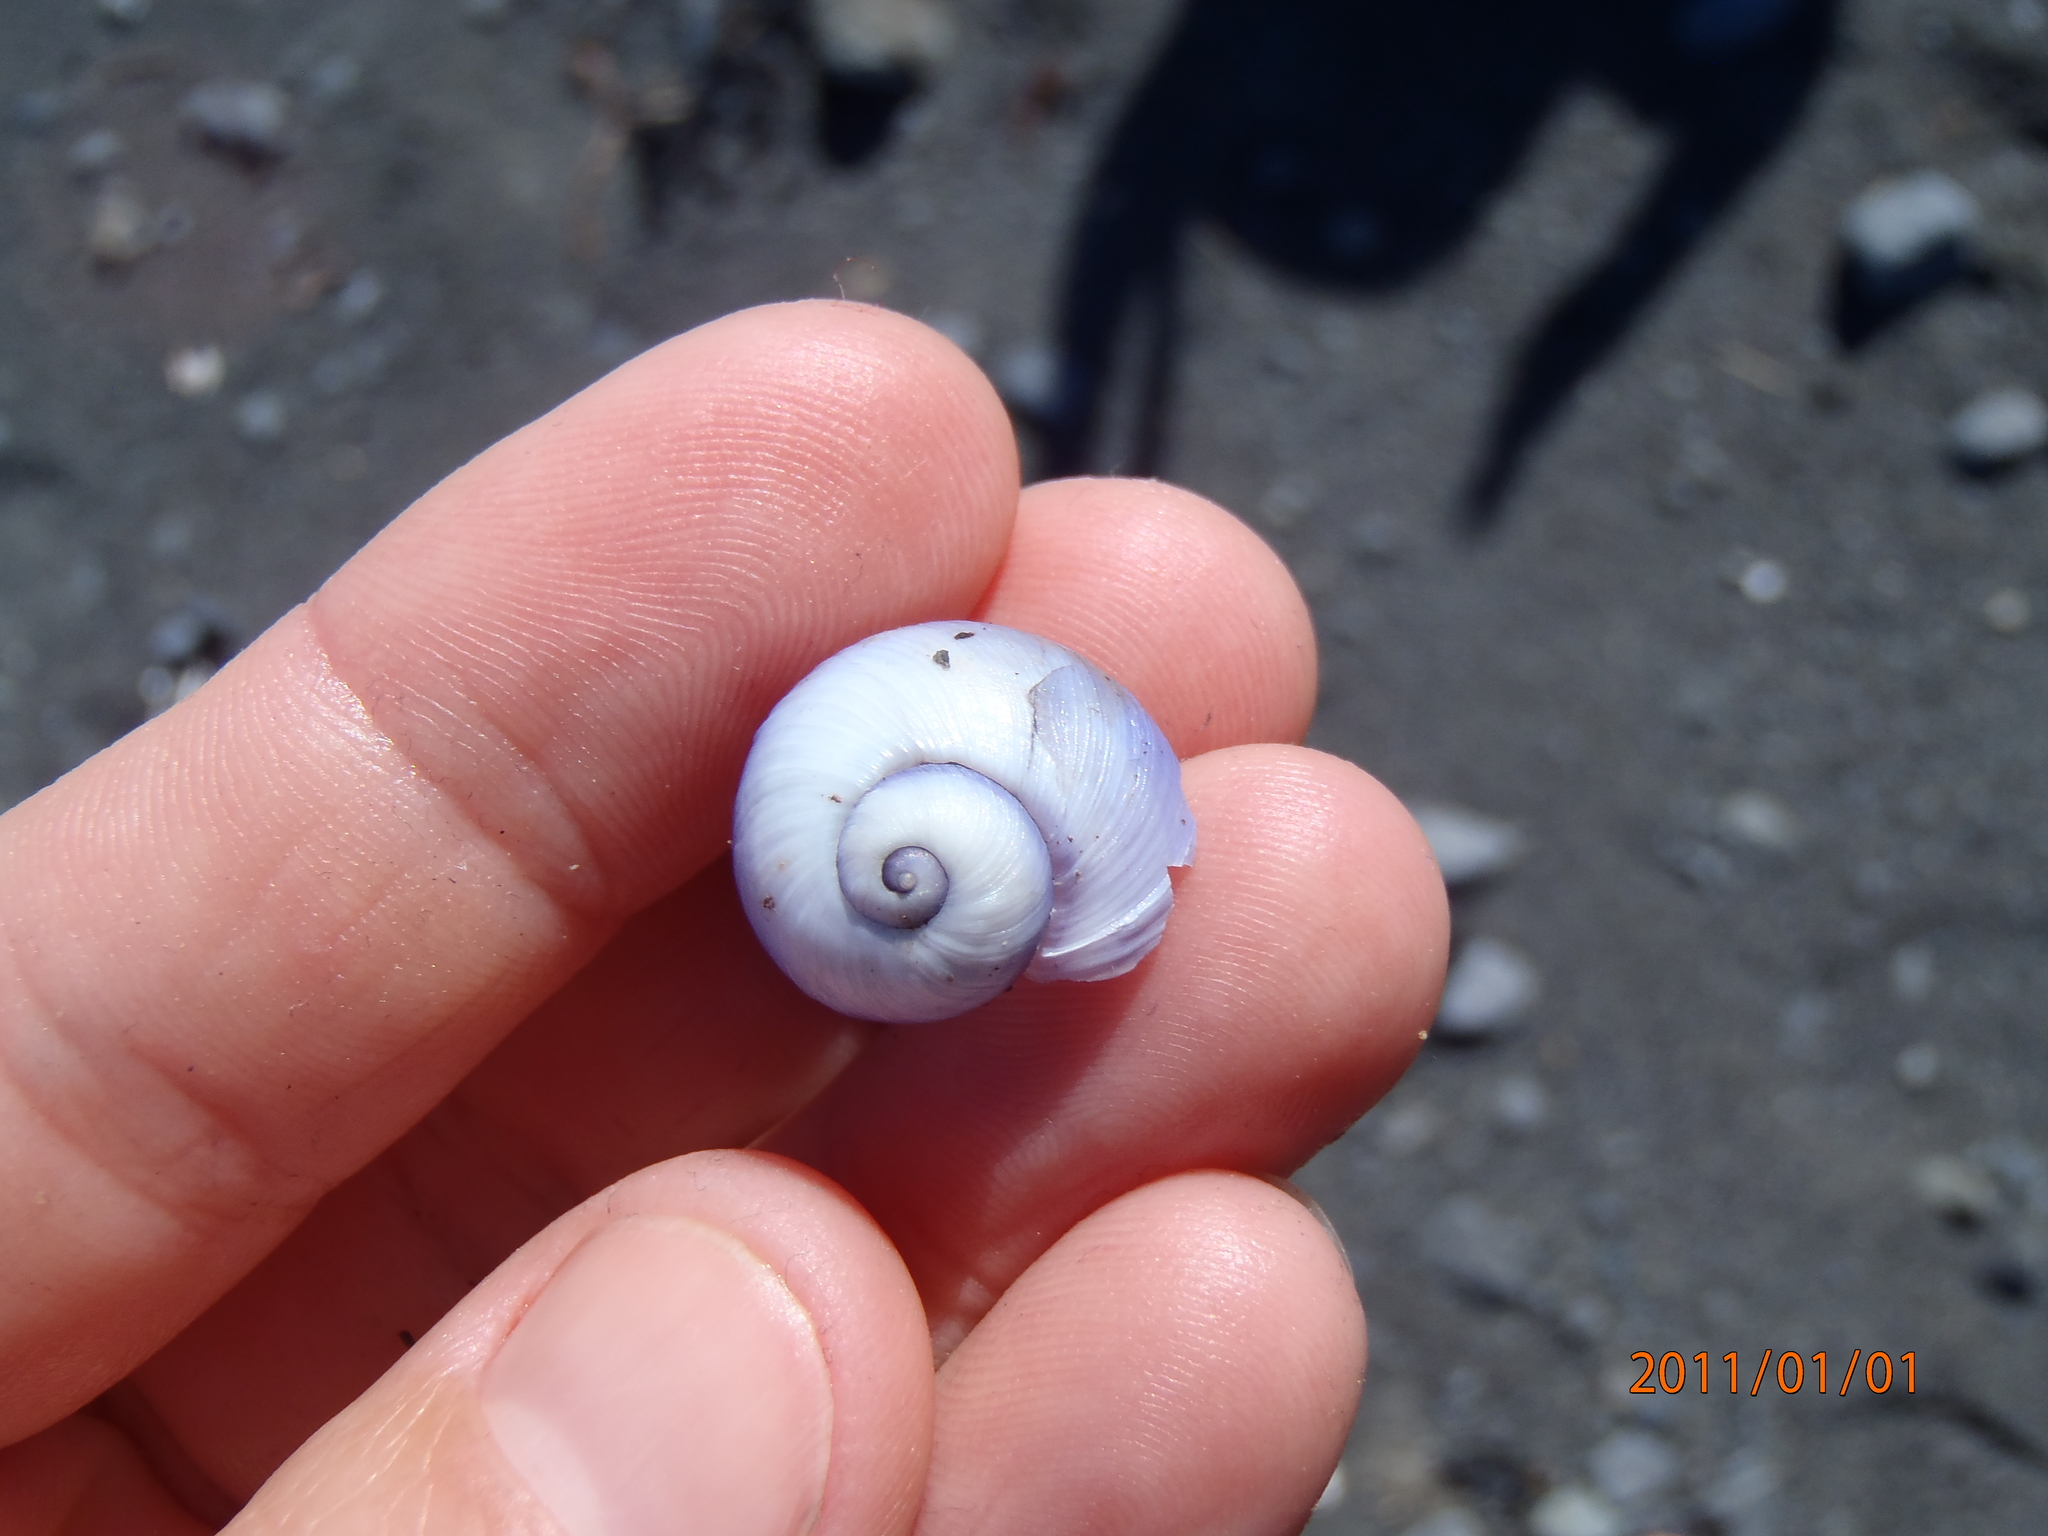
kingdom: Animalia
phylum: Mollusca
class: Gastropoda
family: Epitoniidae
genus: Janthina
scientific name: Janthina janthina
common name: Common janthina
